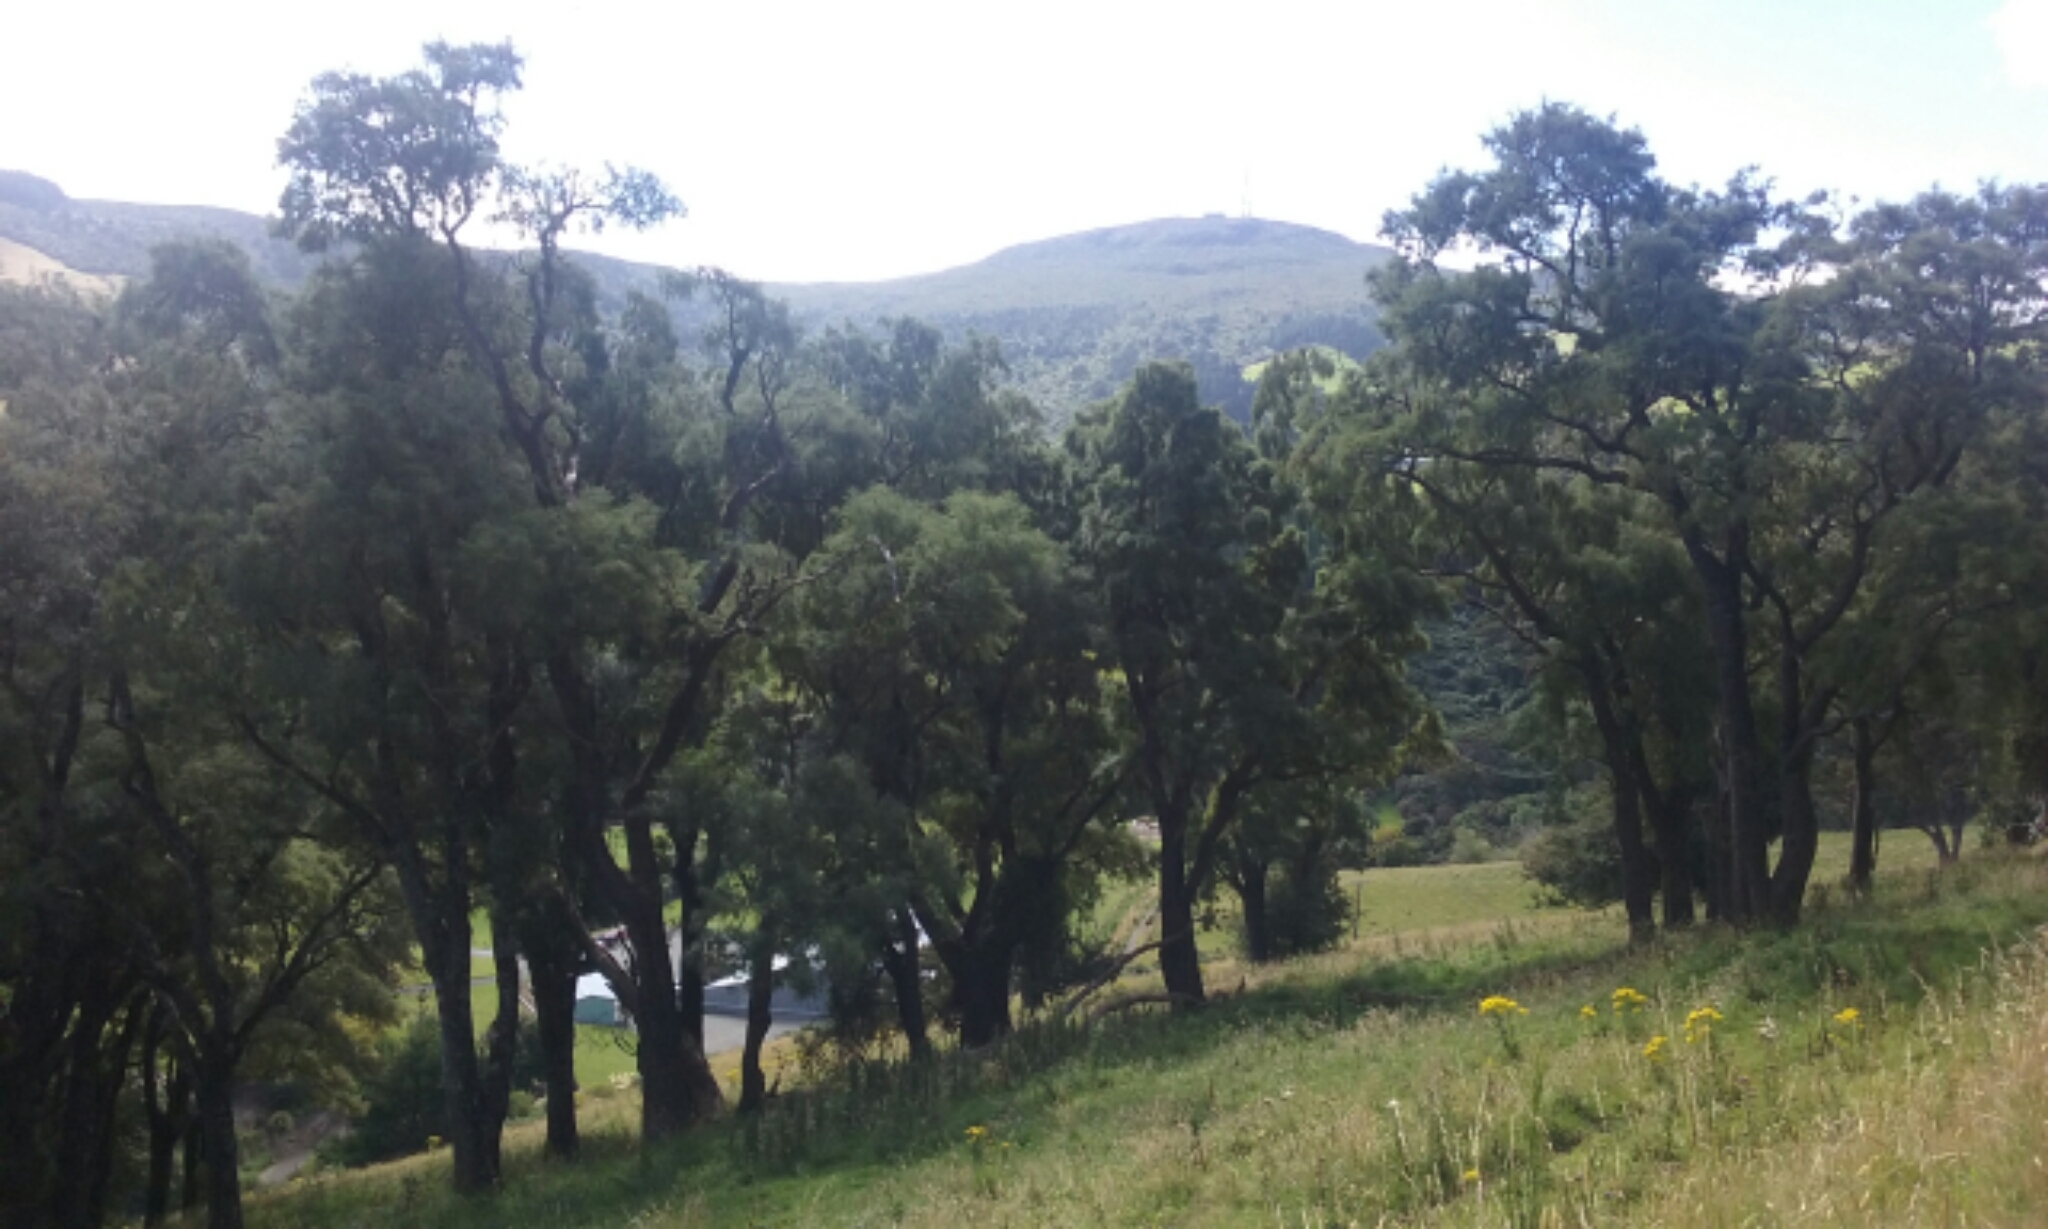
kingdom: Plantae
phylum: Tracheophyta
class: Magnoliopsida
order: Fabales
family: Fabaceae
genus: Sophora
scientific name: Sophora microphylla
